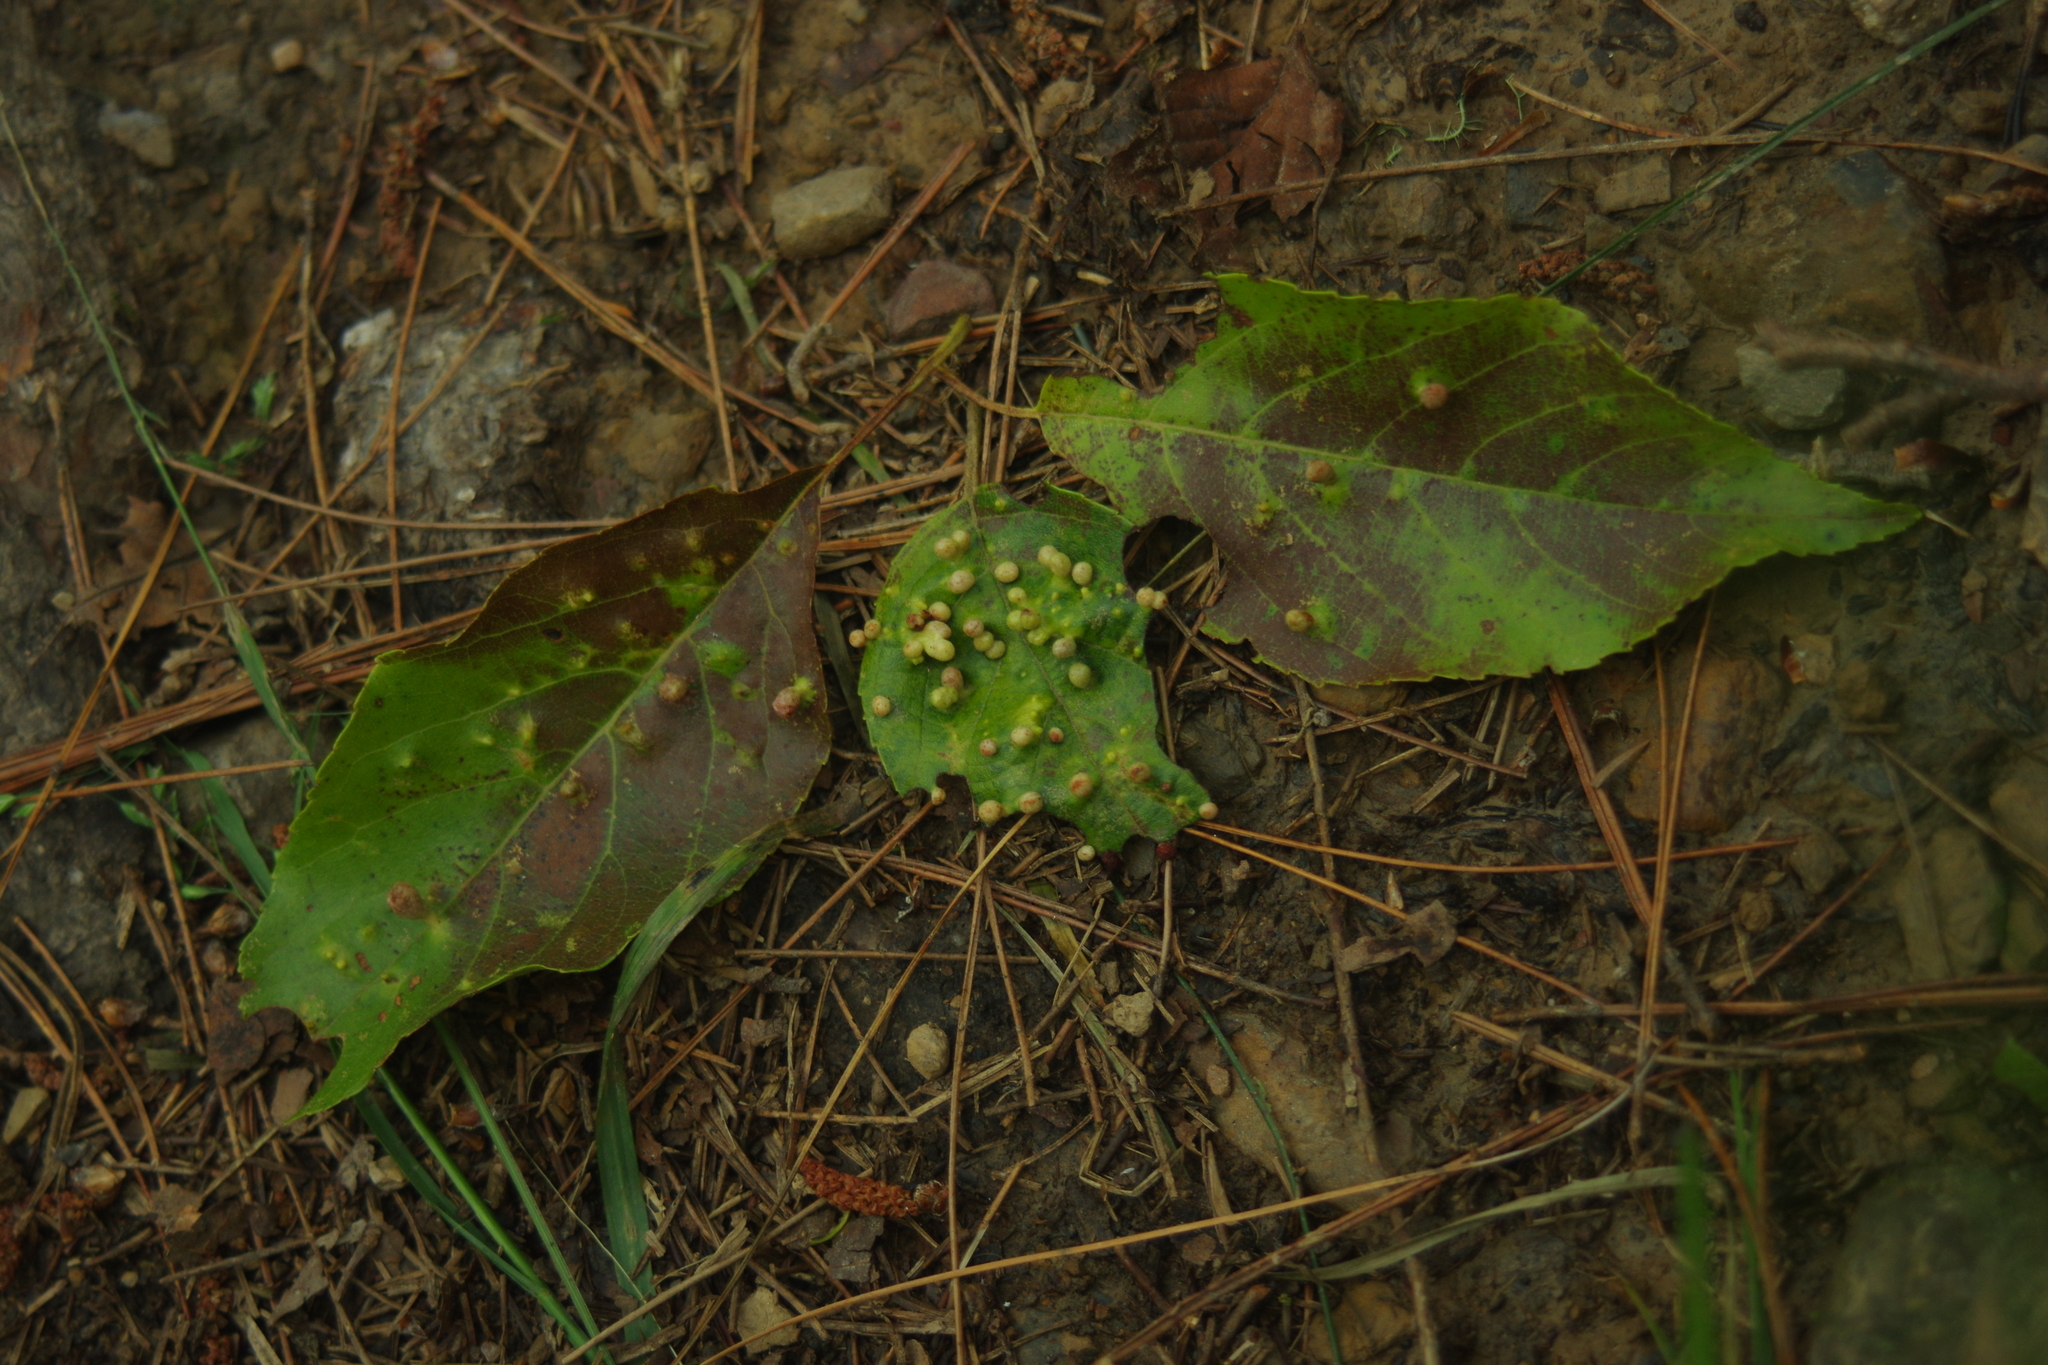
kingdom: Plantae
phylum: Tracheophyta
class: Magnoliopsida
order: Fagales
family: Betulaceae
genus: Alnus
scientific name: Alnus formosana
